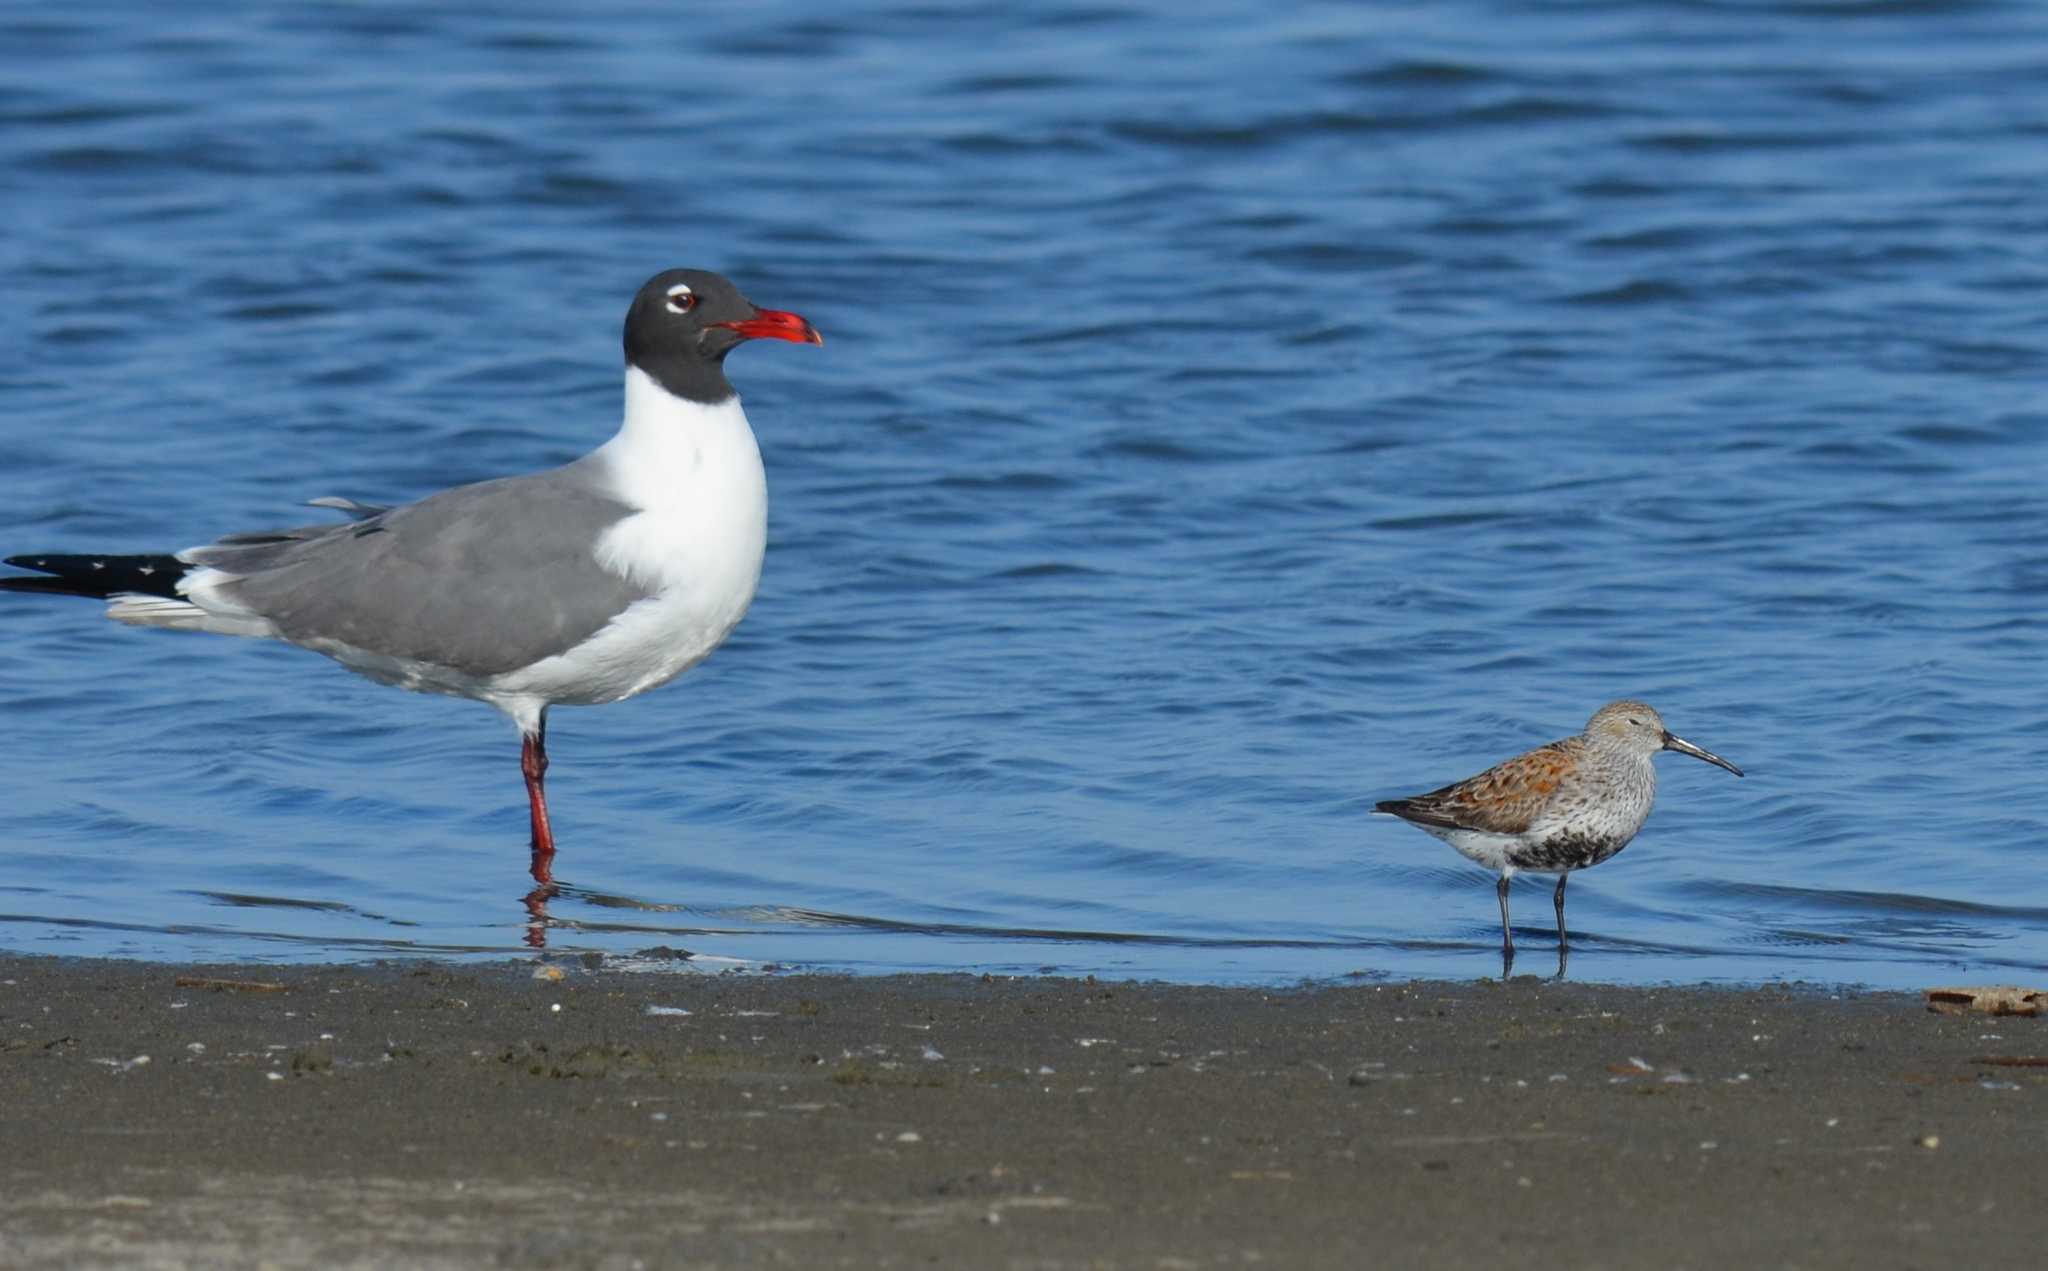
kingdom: Animalia
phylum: Chordata
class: Aves
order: Charadriiformes
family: Scolopacidae
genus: Calidris
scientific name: Calidris alpina
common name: Dunlin
